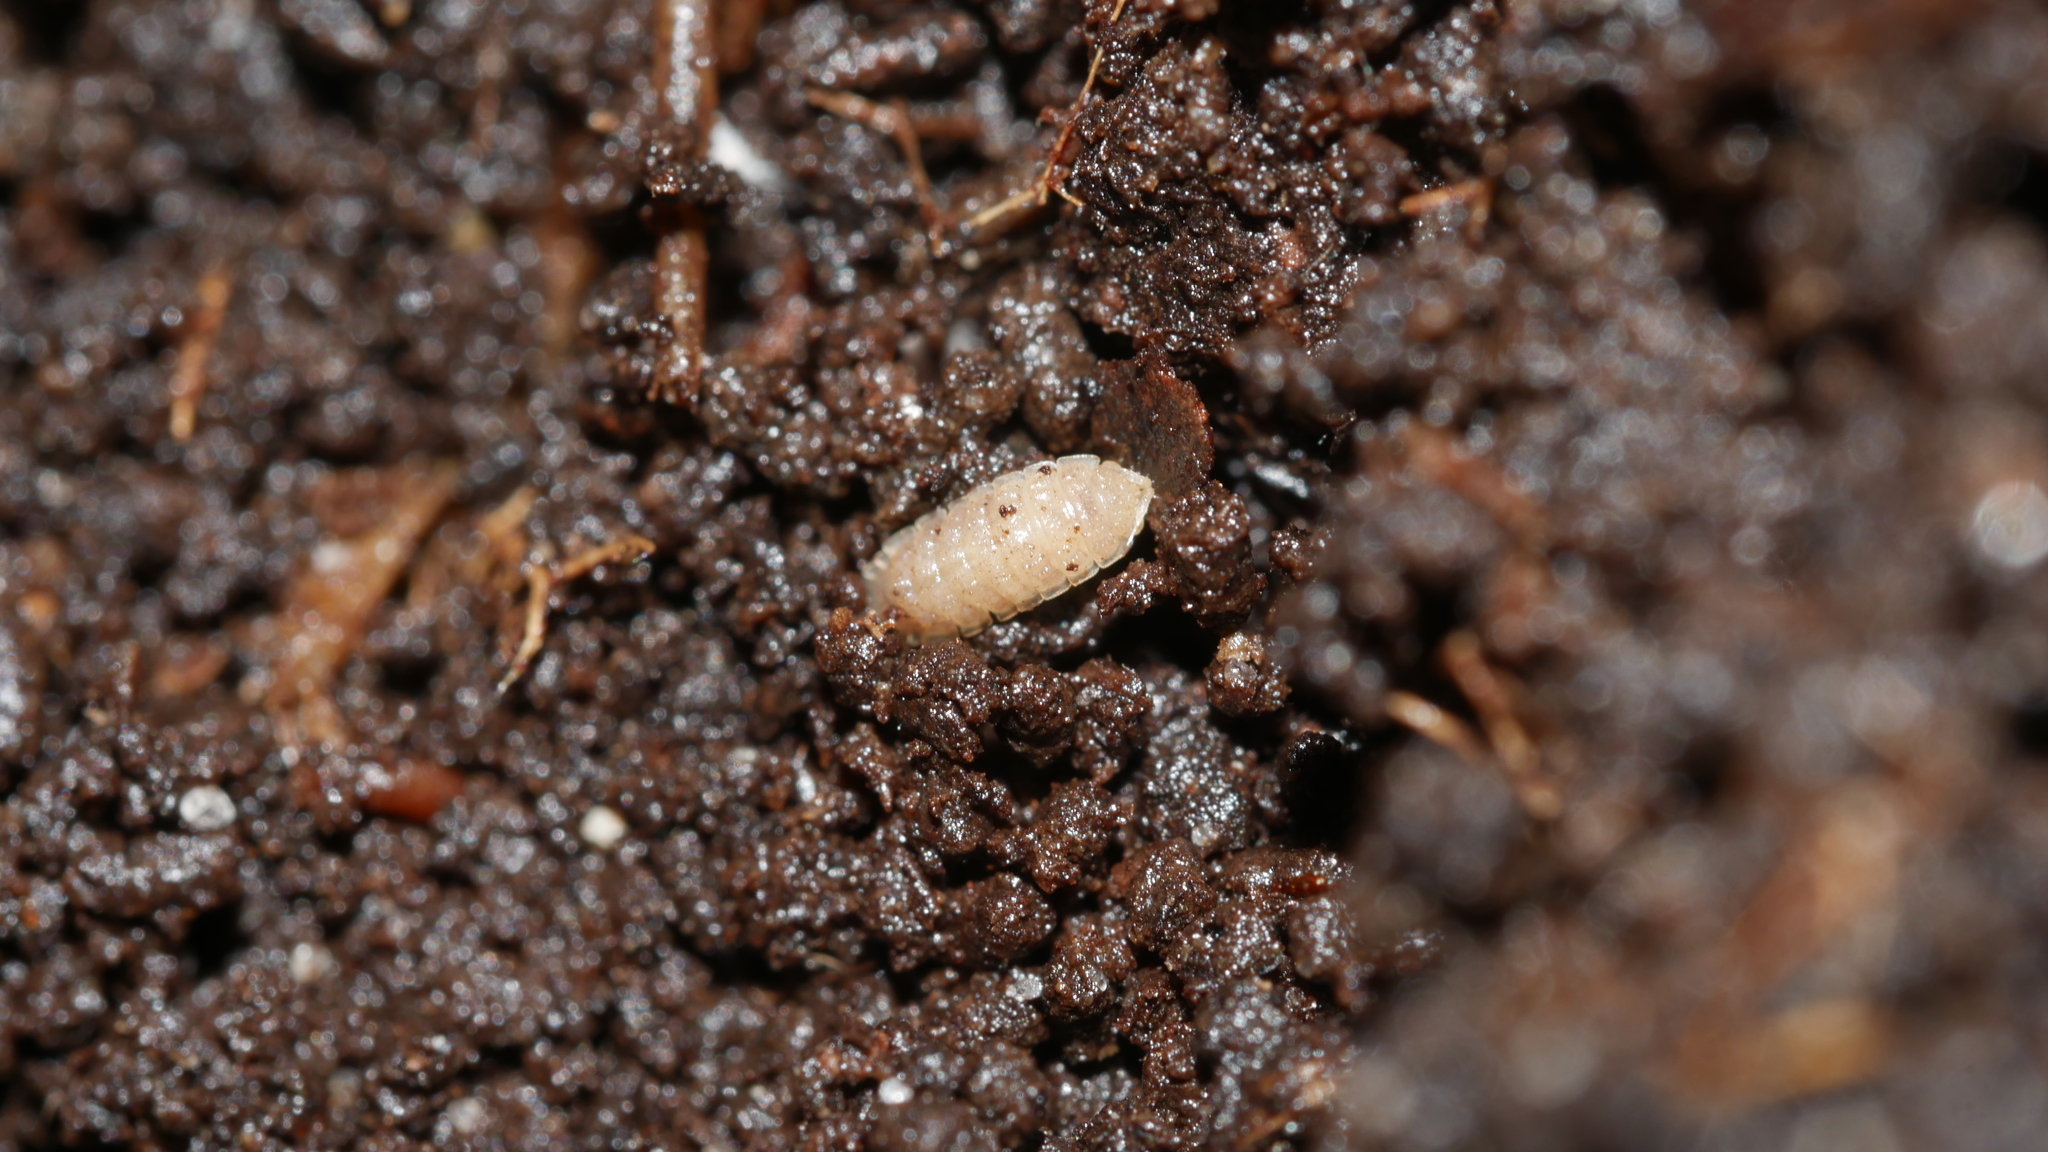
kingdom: Animalia
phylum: Arthropoda
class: Malacostraca
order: Isopoda
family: Trichoniscidae
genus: Haplophthalmus
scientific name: Haplophthalmus danicus
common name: Pillbug
